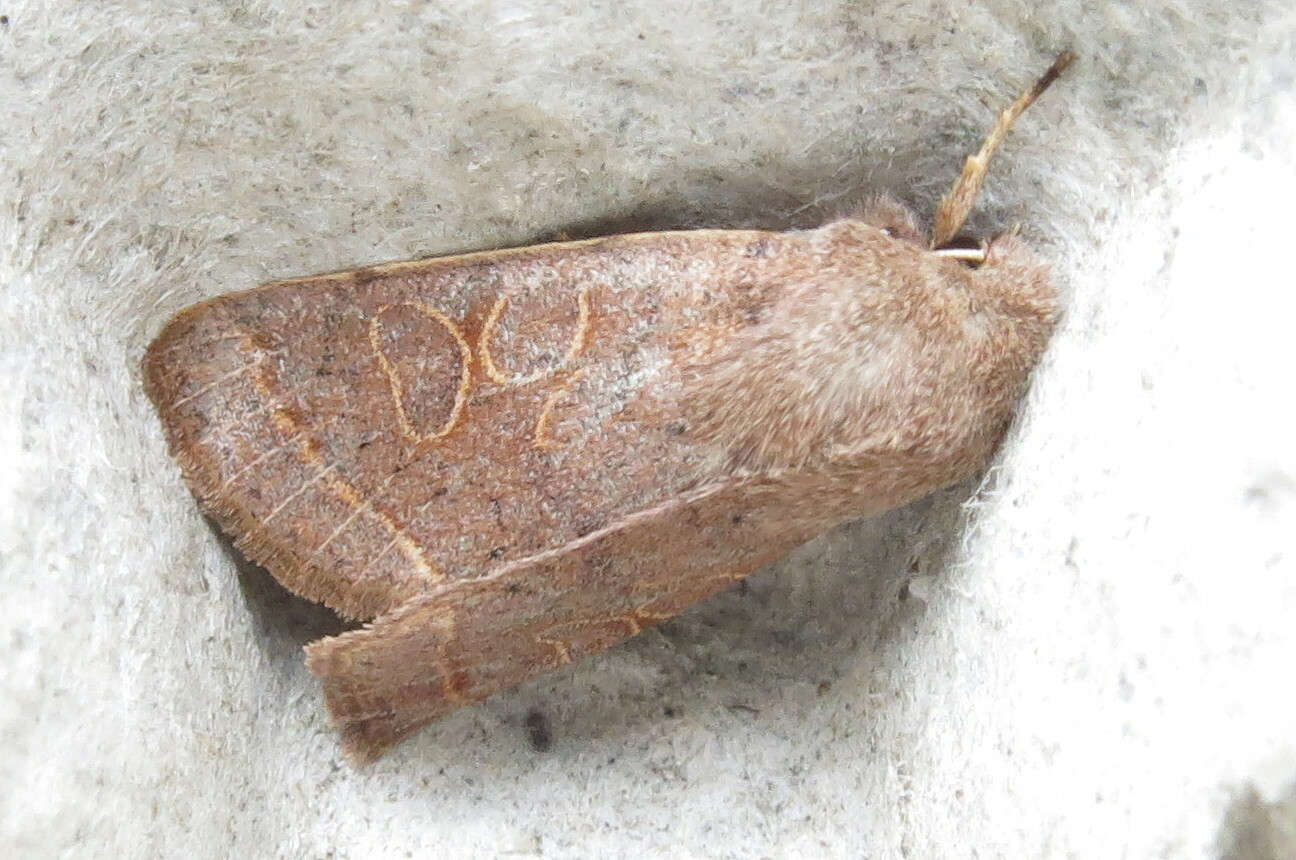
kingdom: Animalia
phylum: Arthropoda
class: Insecta
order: Lepidoptera
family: Noctuidae
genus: Orthosia
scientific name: Orthosia cerasi
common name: Common quaker
